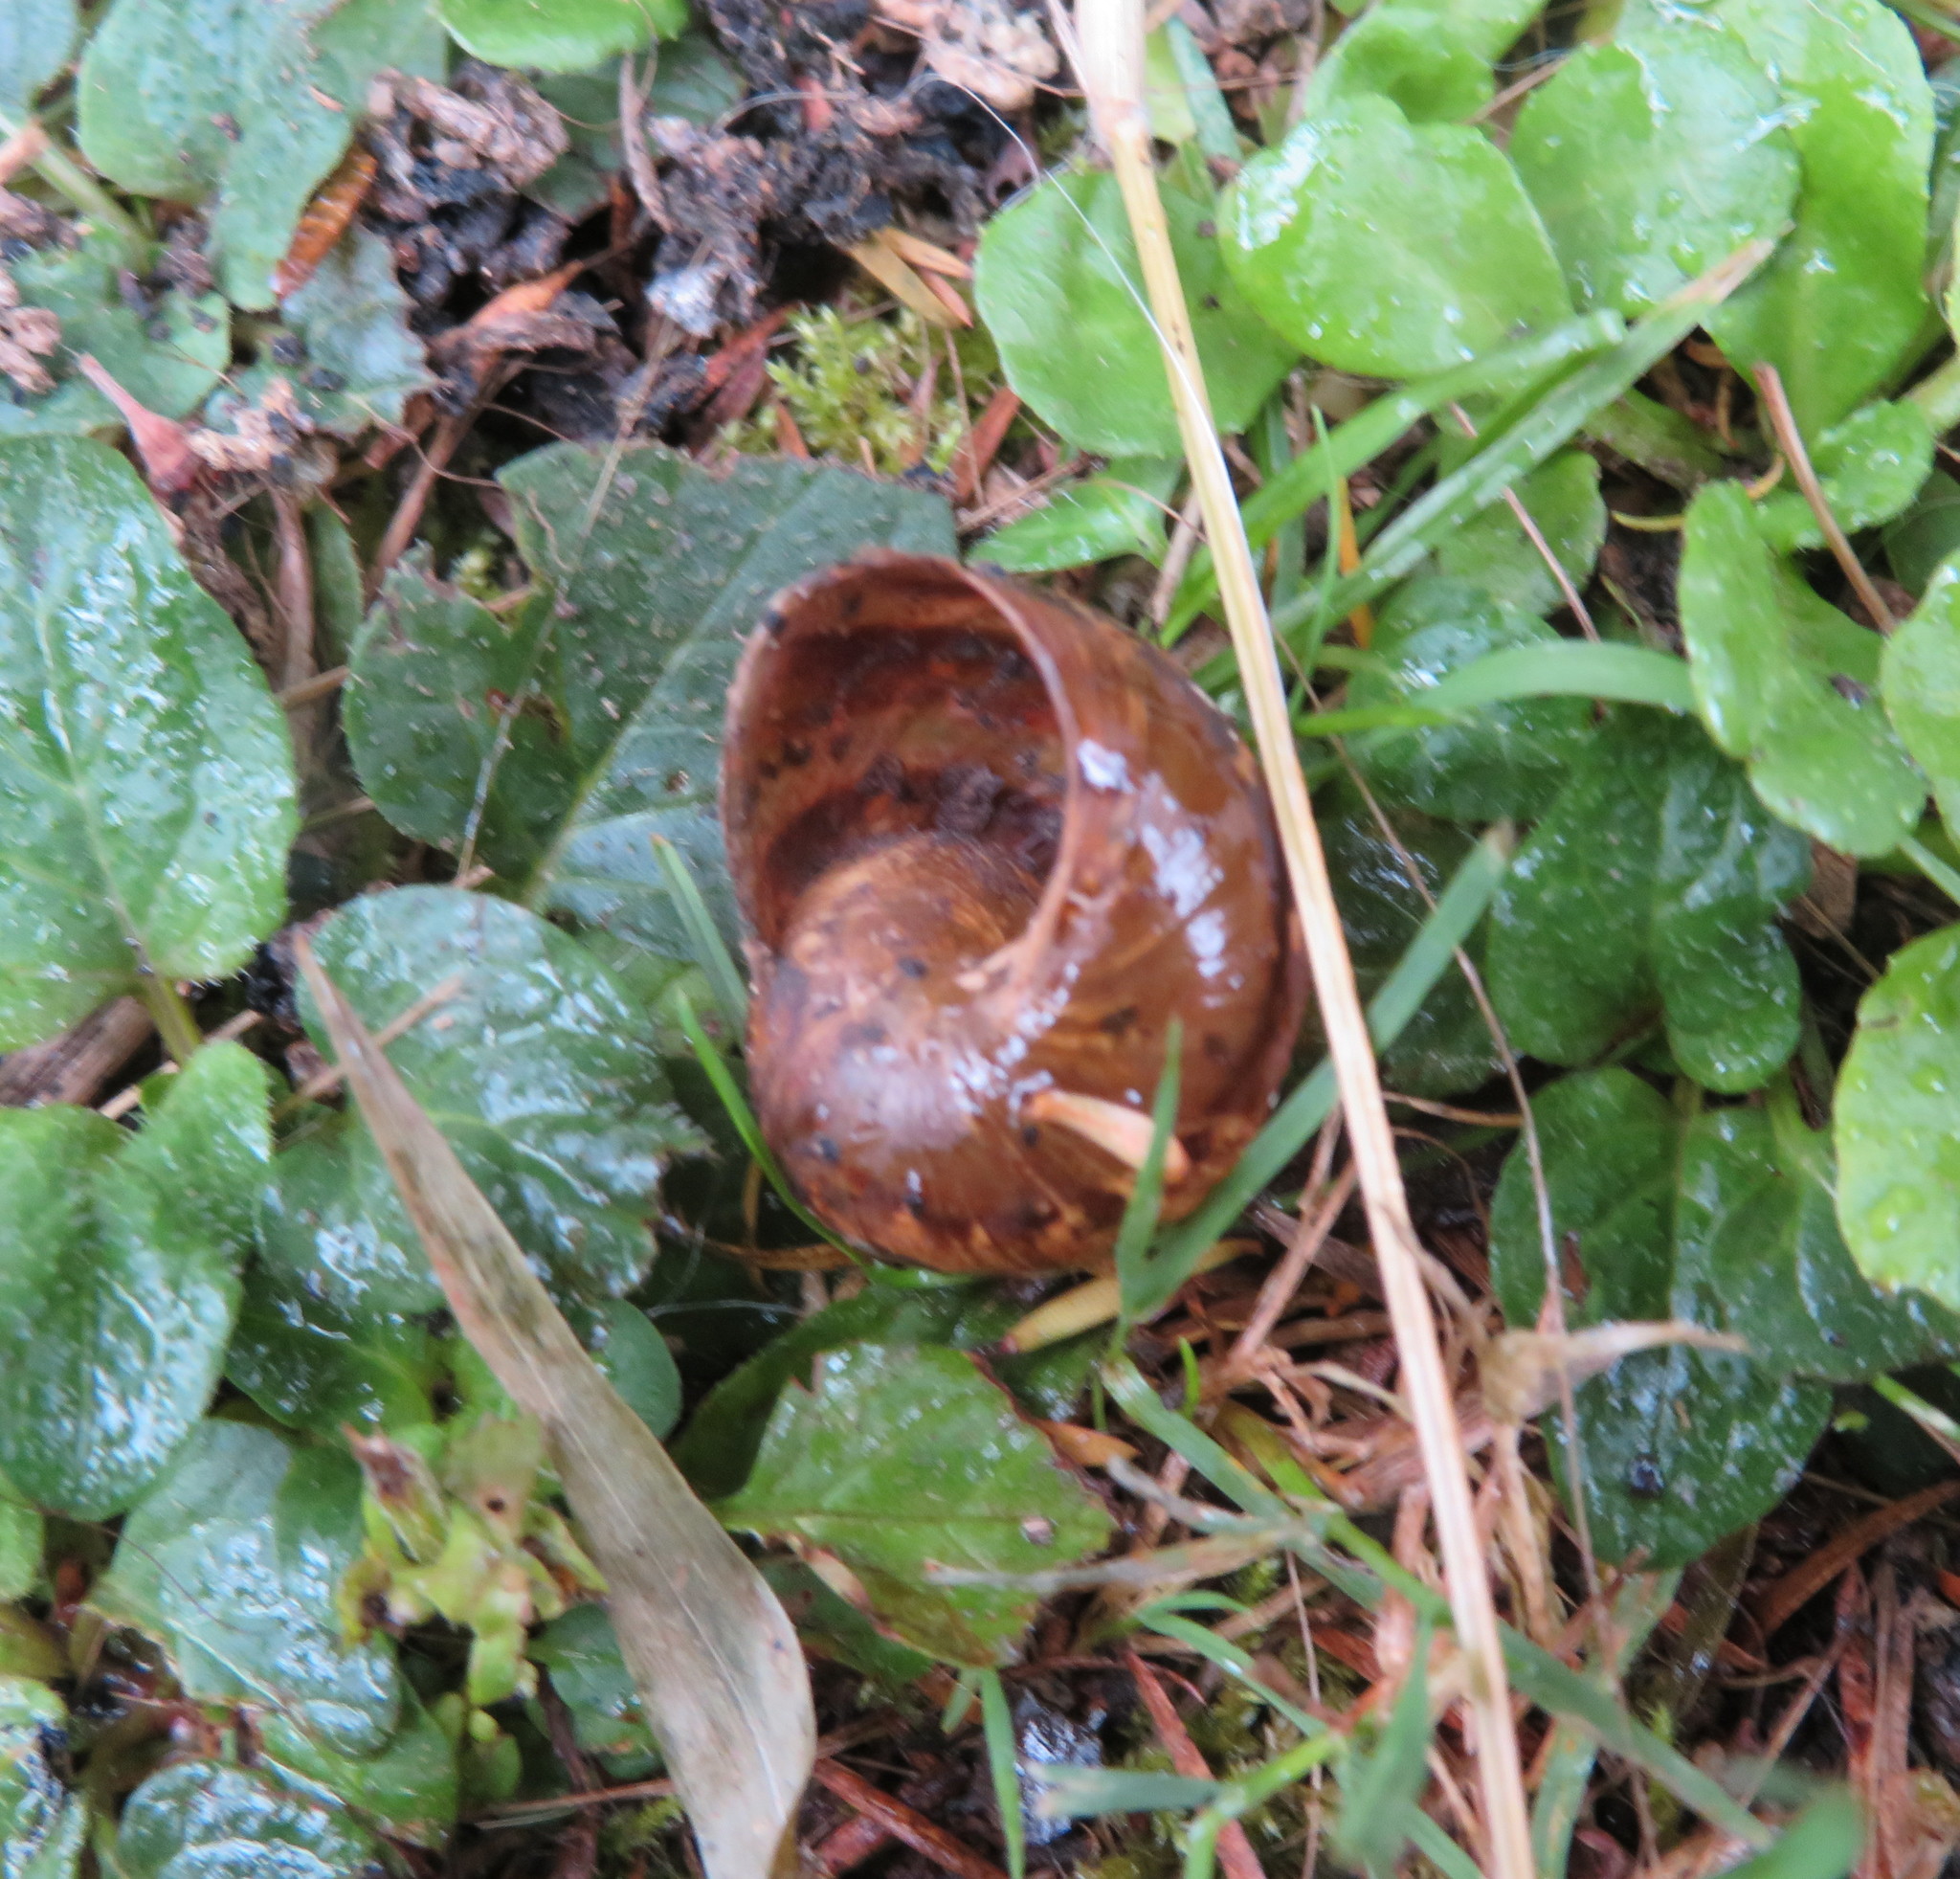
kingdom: Animalia
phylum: Mollusca
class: Gastropoda
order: Stylommatophora
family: Helicidae
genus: Cornu
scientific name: Cornu aspersum
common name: Brown garden snail
